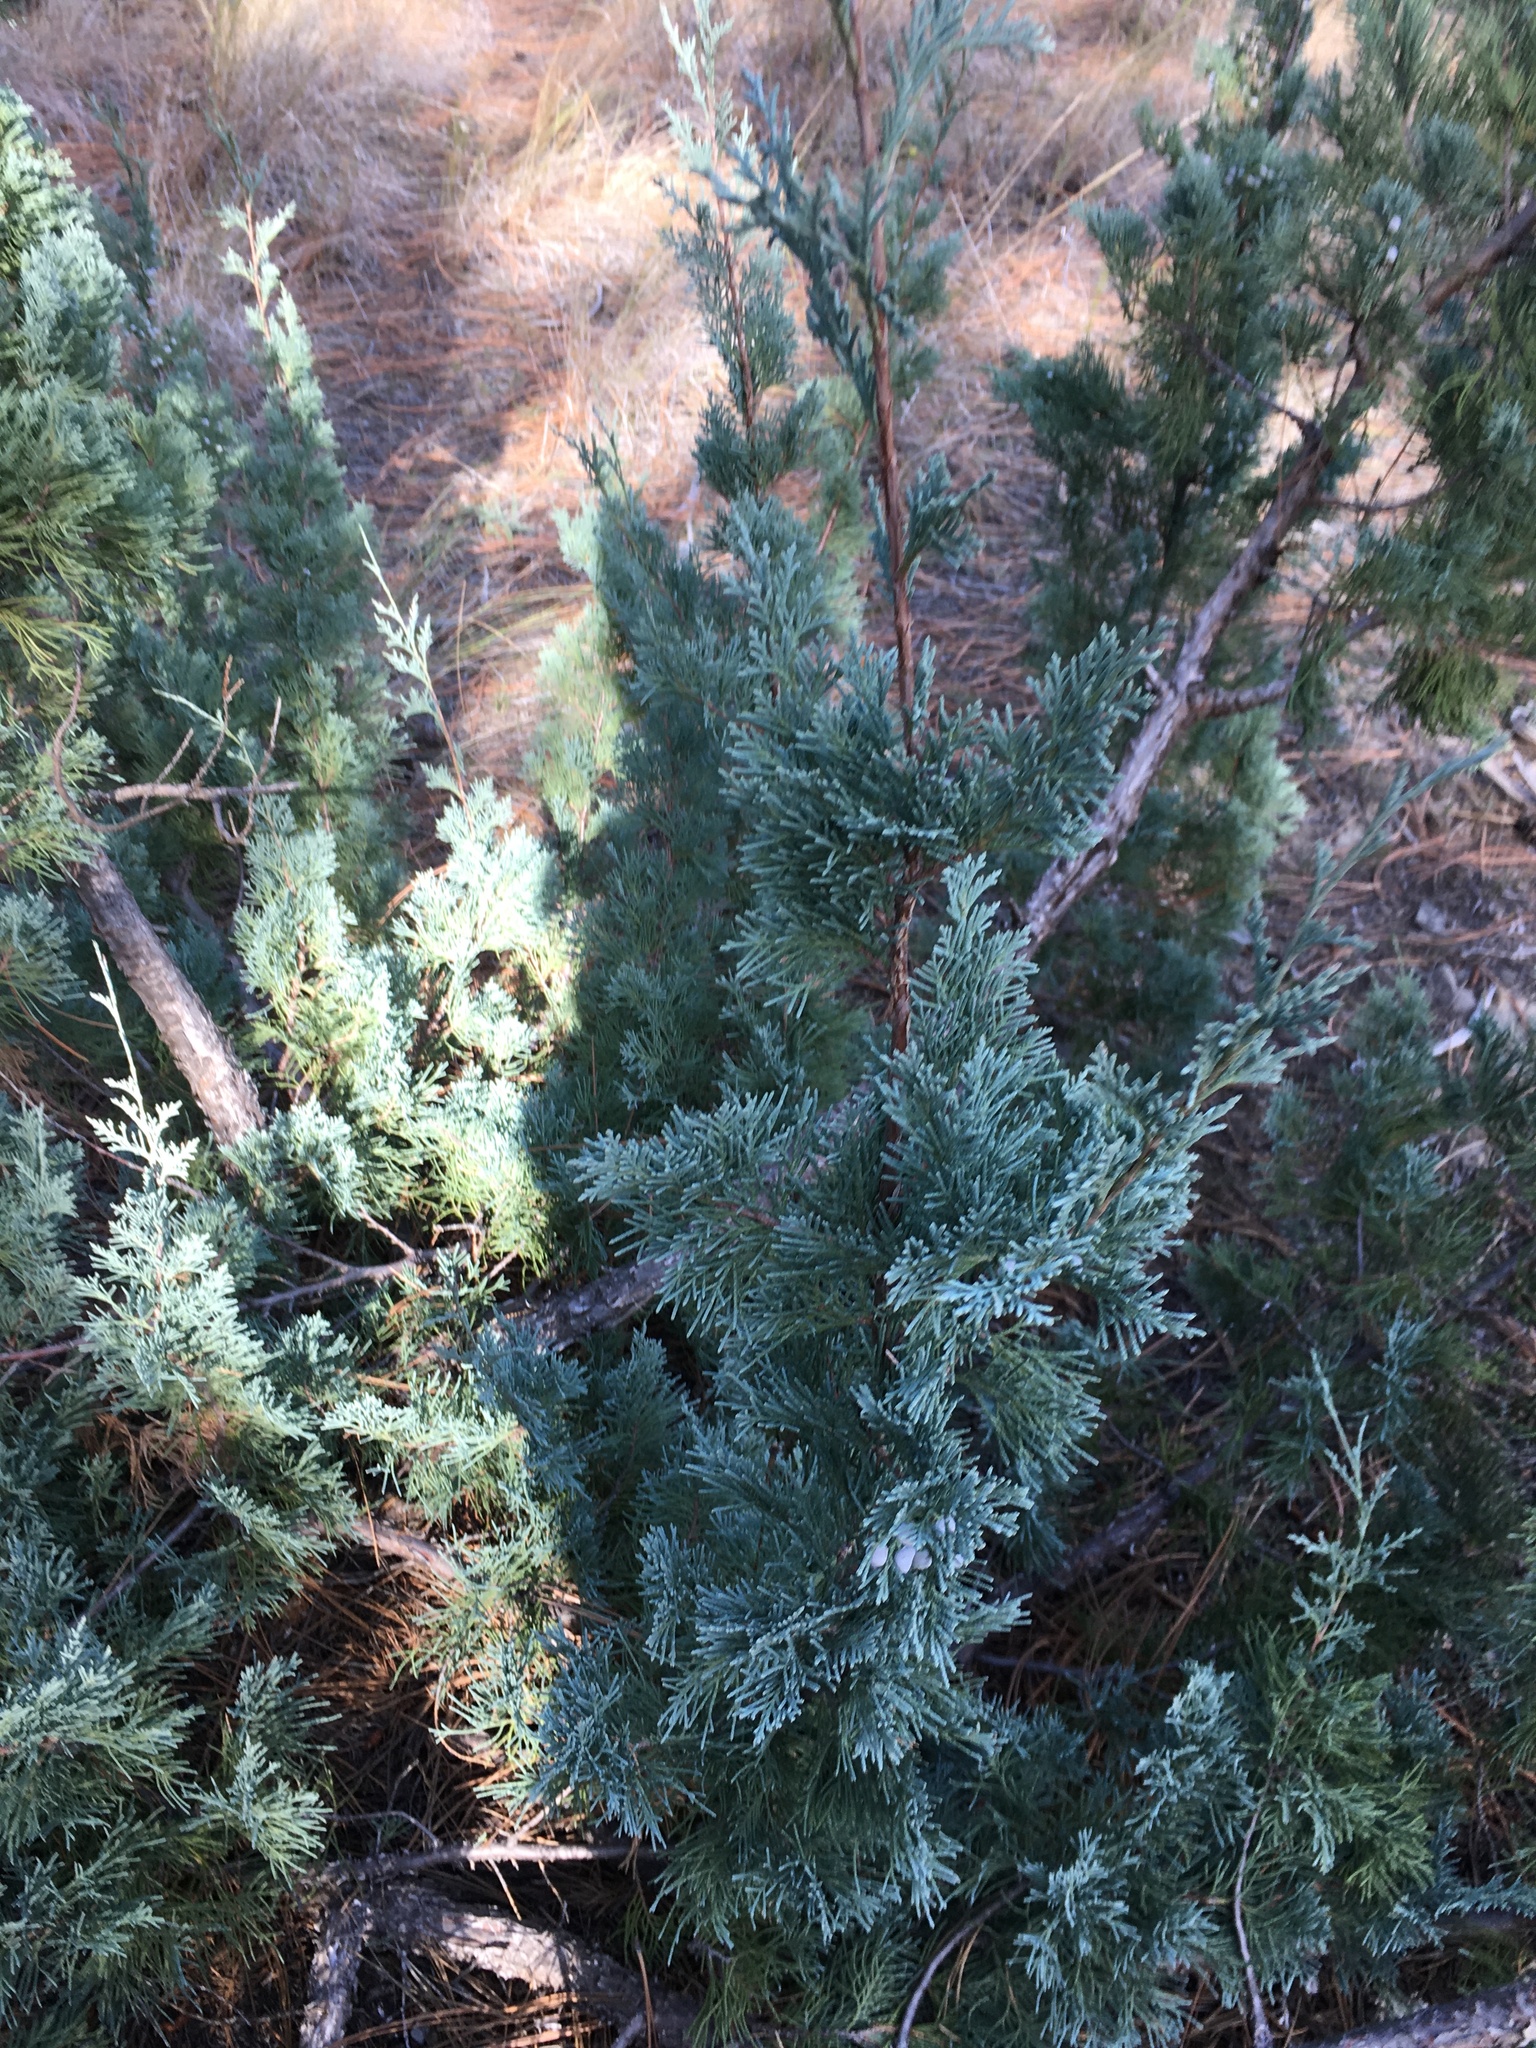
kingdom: Plantae
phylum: Tracheophyta
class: Pinopsida
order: Pinales
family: Cupressaceae
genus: Juniperus
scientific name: Juniperus scopulorum
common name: Rocky mountain juniper
